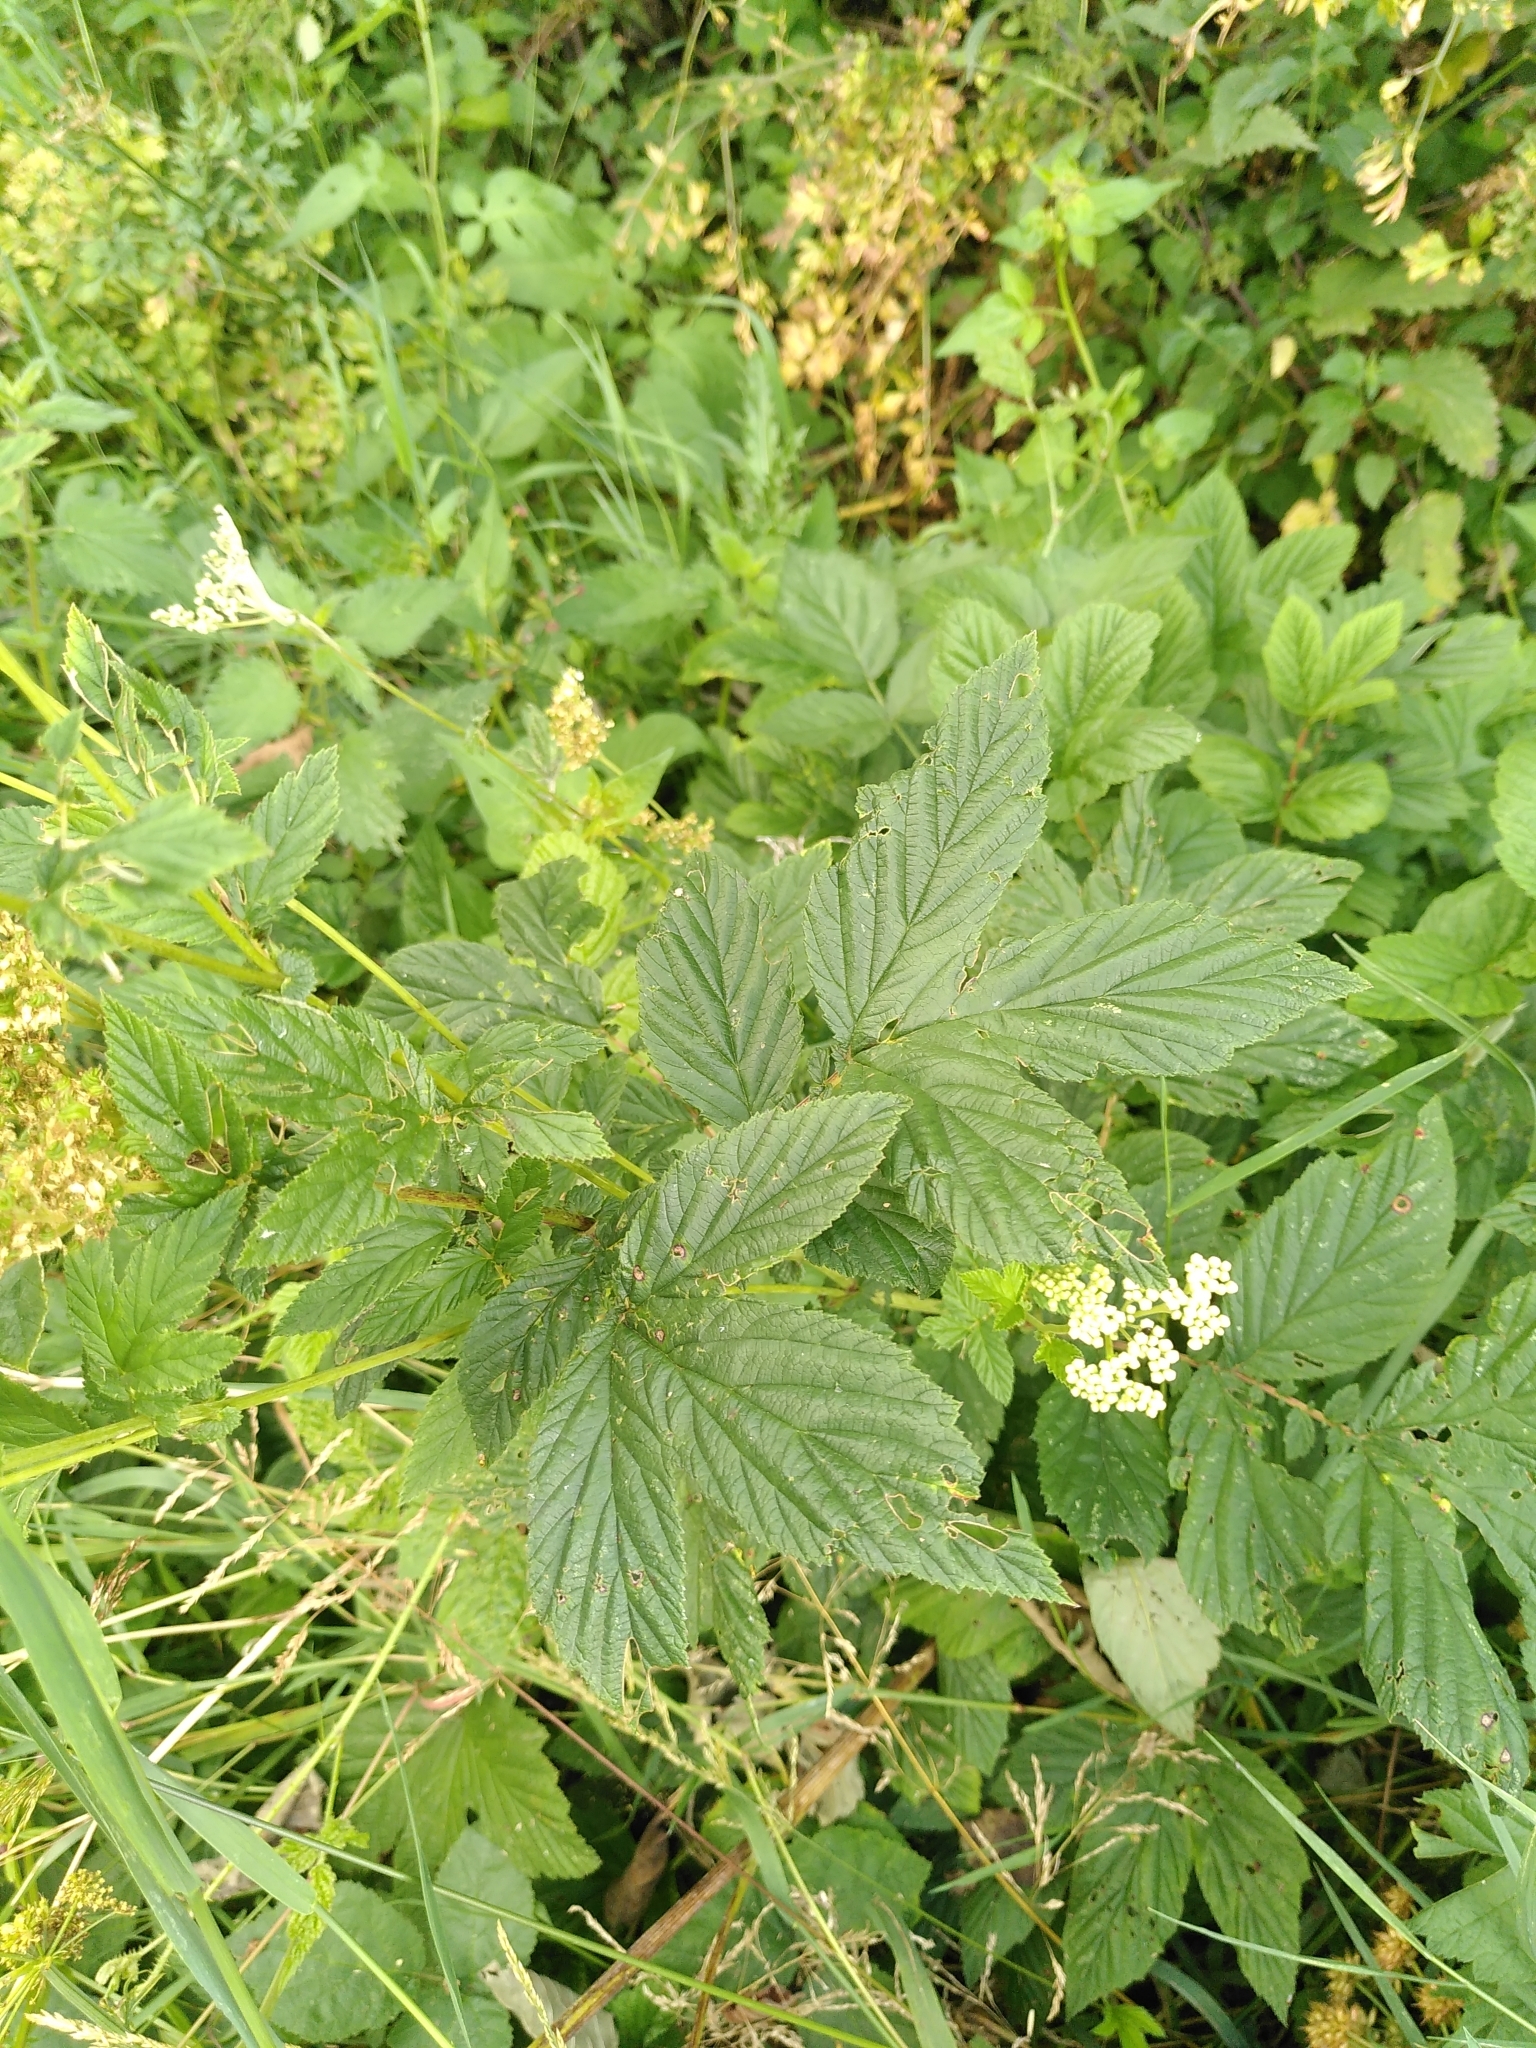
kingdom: Plantae
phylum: Tracheophyta
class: Magnoliopsida
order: Rosales
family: Rosaceae
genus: Filipendula
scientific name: Filipendula ulmaria
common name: Meadowsweet
